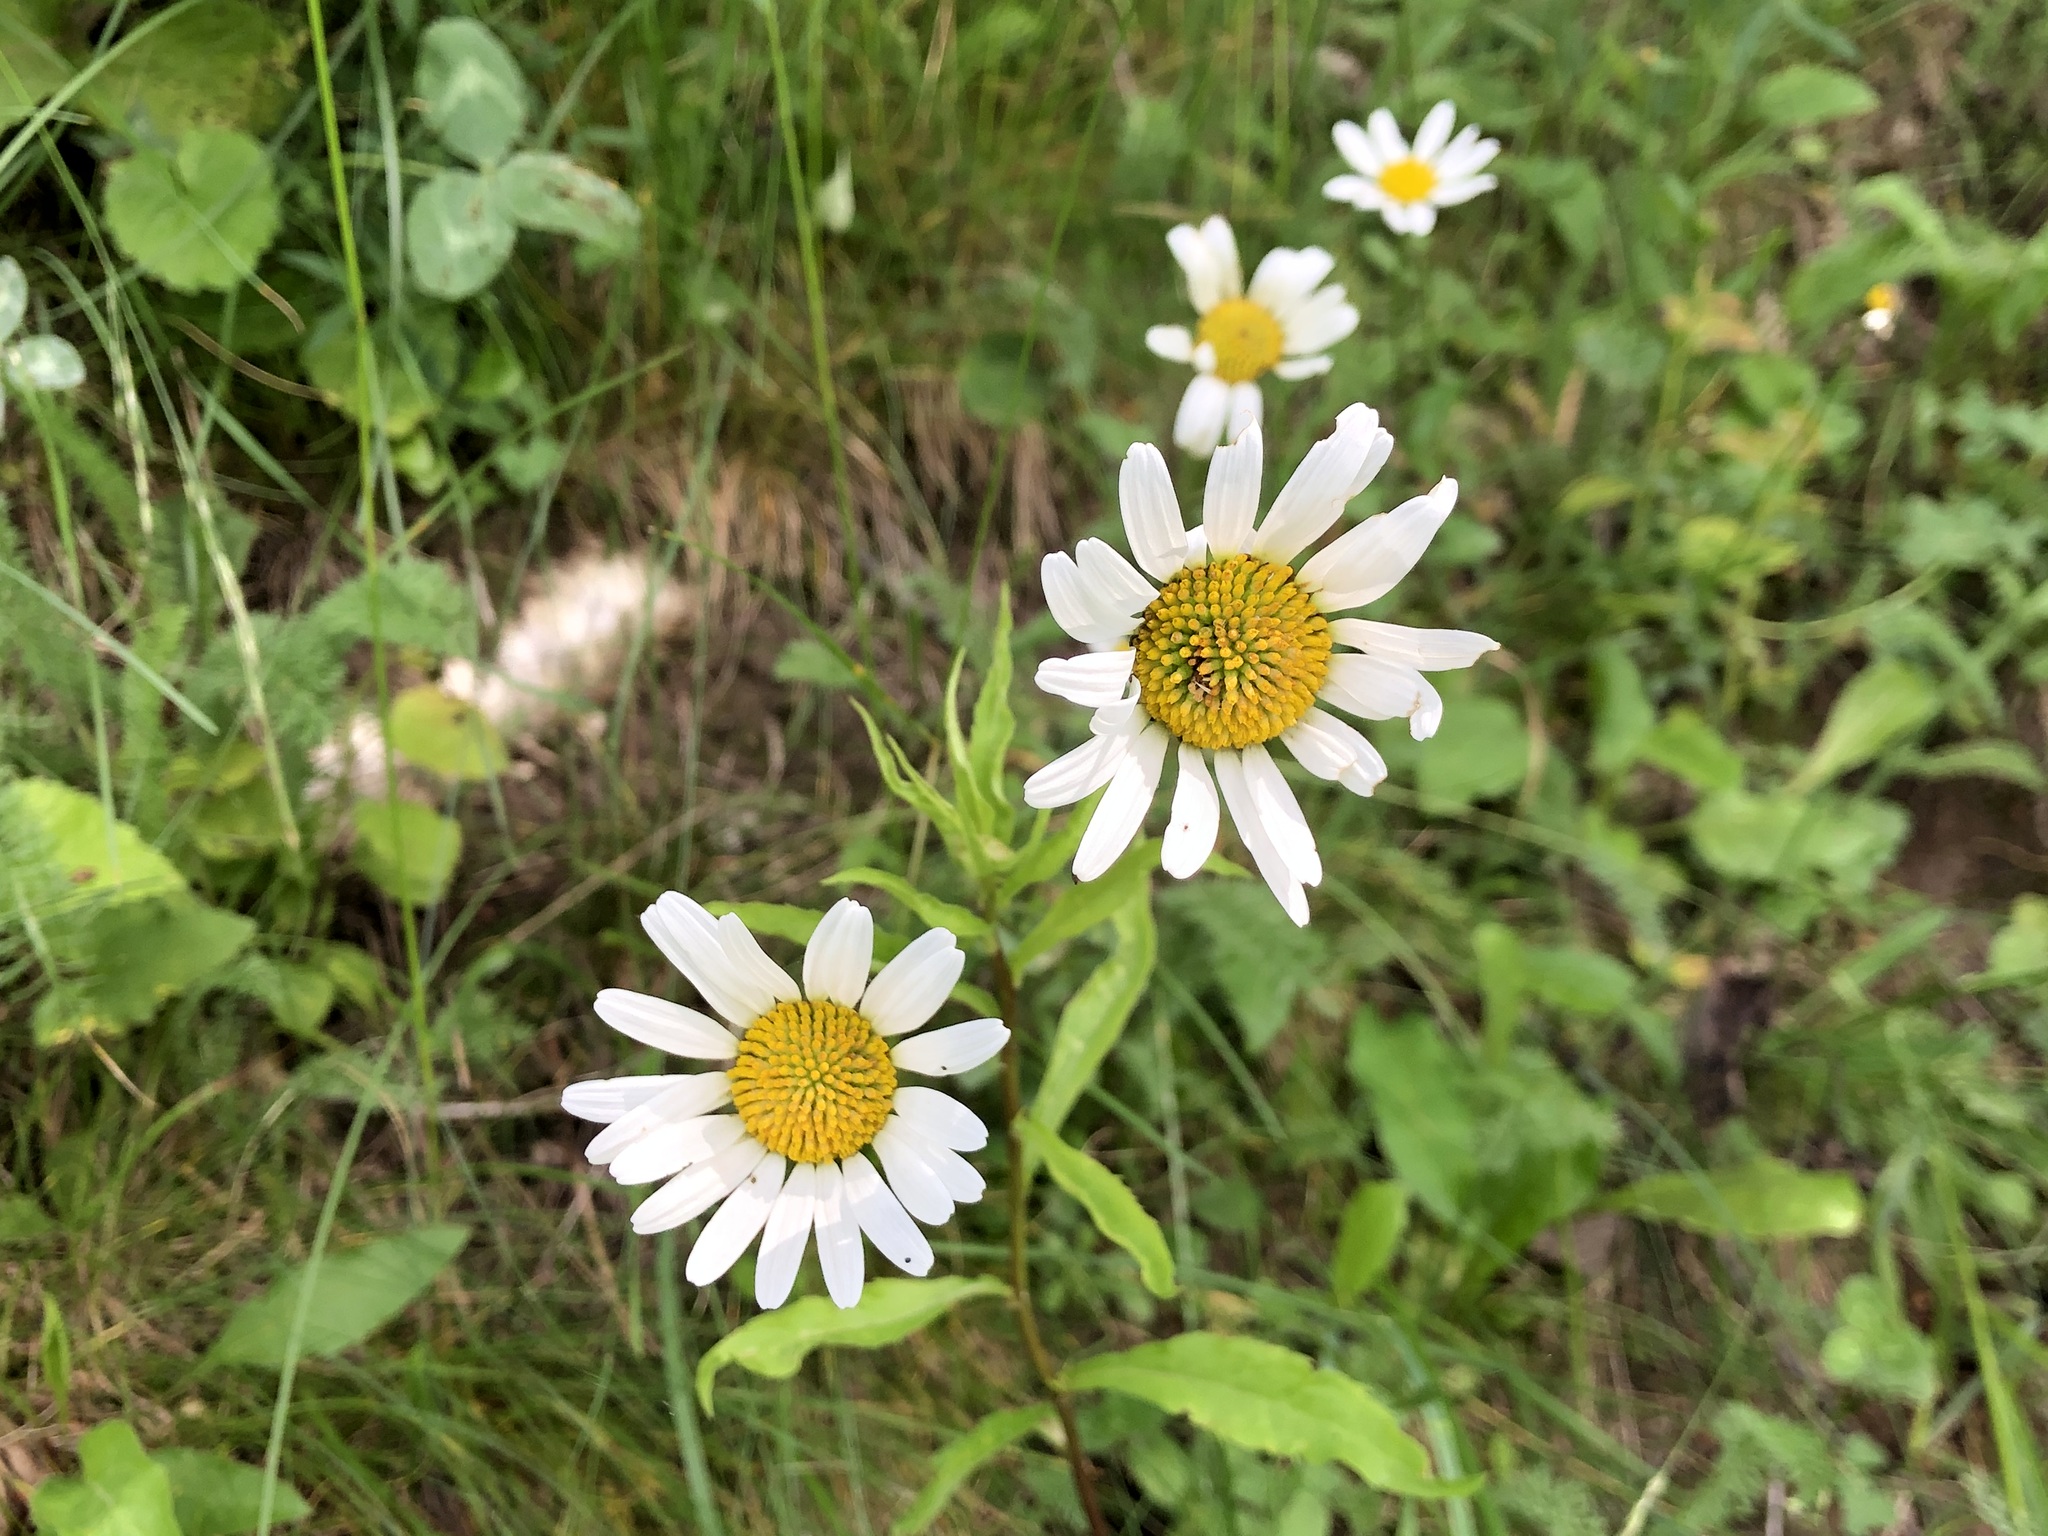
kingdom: Plantae
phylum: Tracheophyta
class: Magnoliopsida
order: Asterales
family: Asteraceae
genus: Leucanthemum
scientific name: Leucanthemum vulgare
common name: Oxeye daisy
